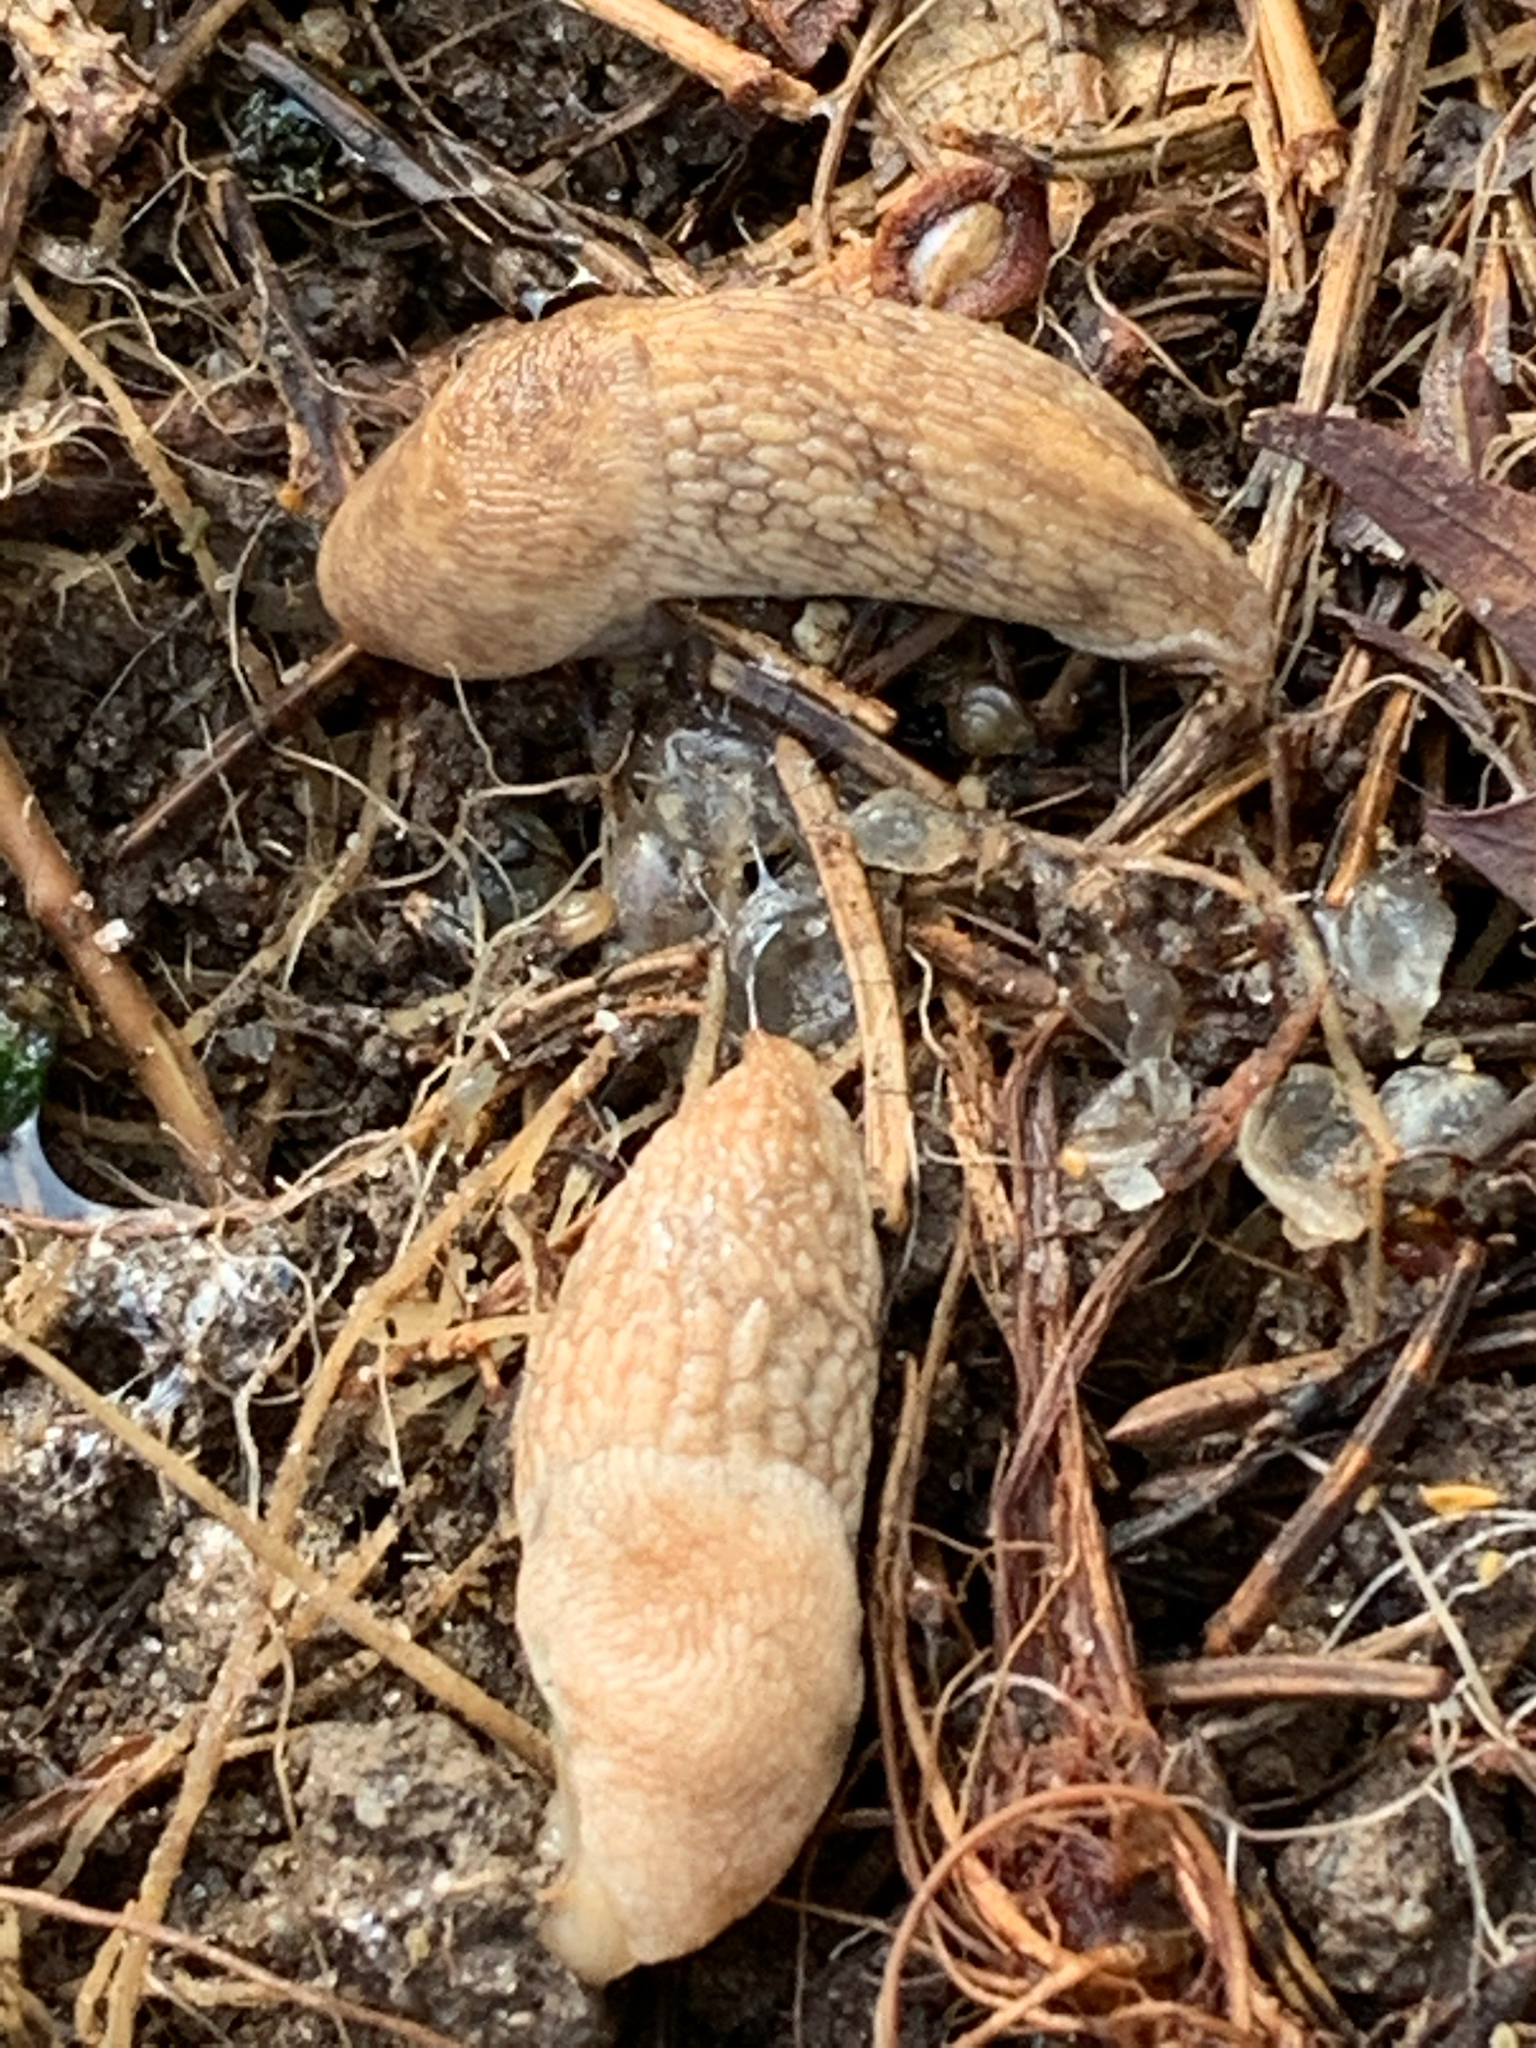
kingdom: Animalia
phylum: Mollusca
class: Gastropoda
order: Stylommatophora
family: Agriolimacidae
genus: Deroceras
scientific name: Deroceras reticulatum
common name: Gray field slug
